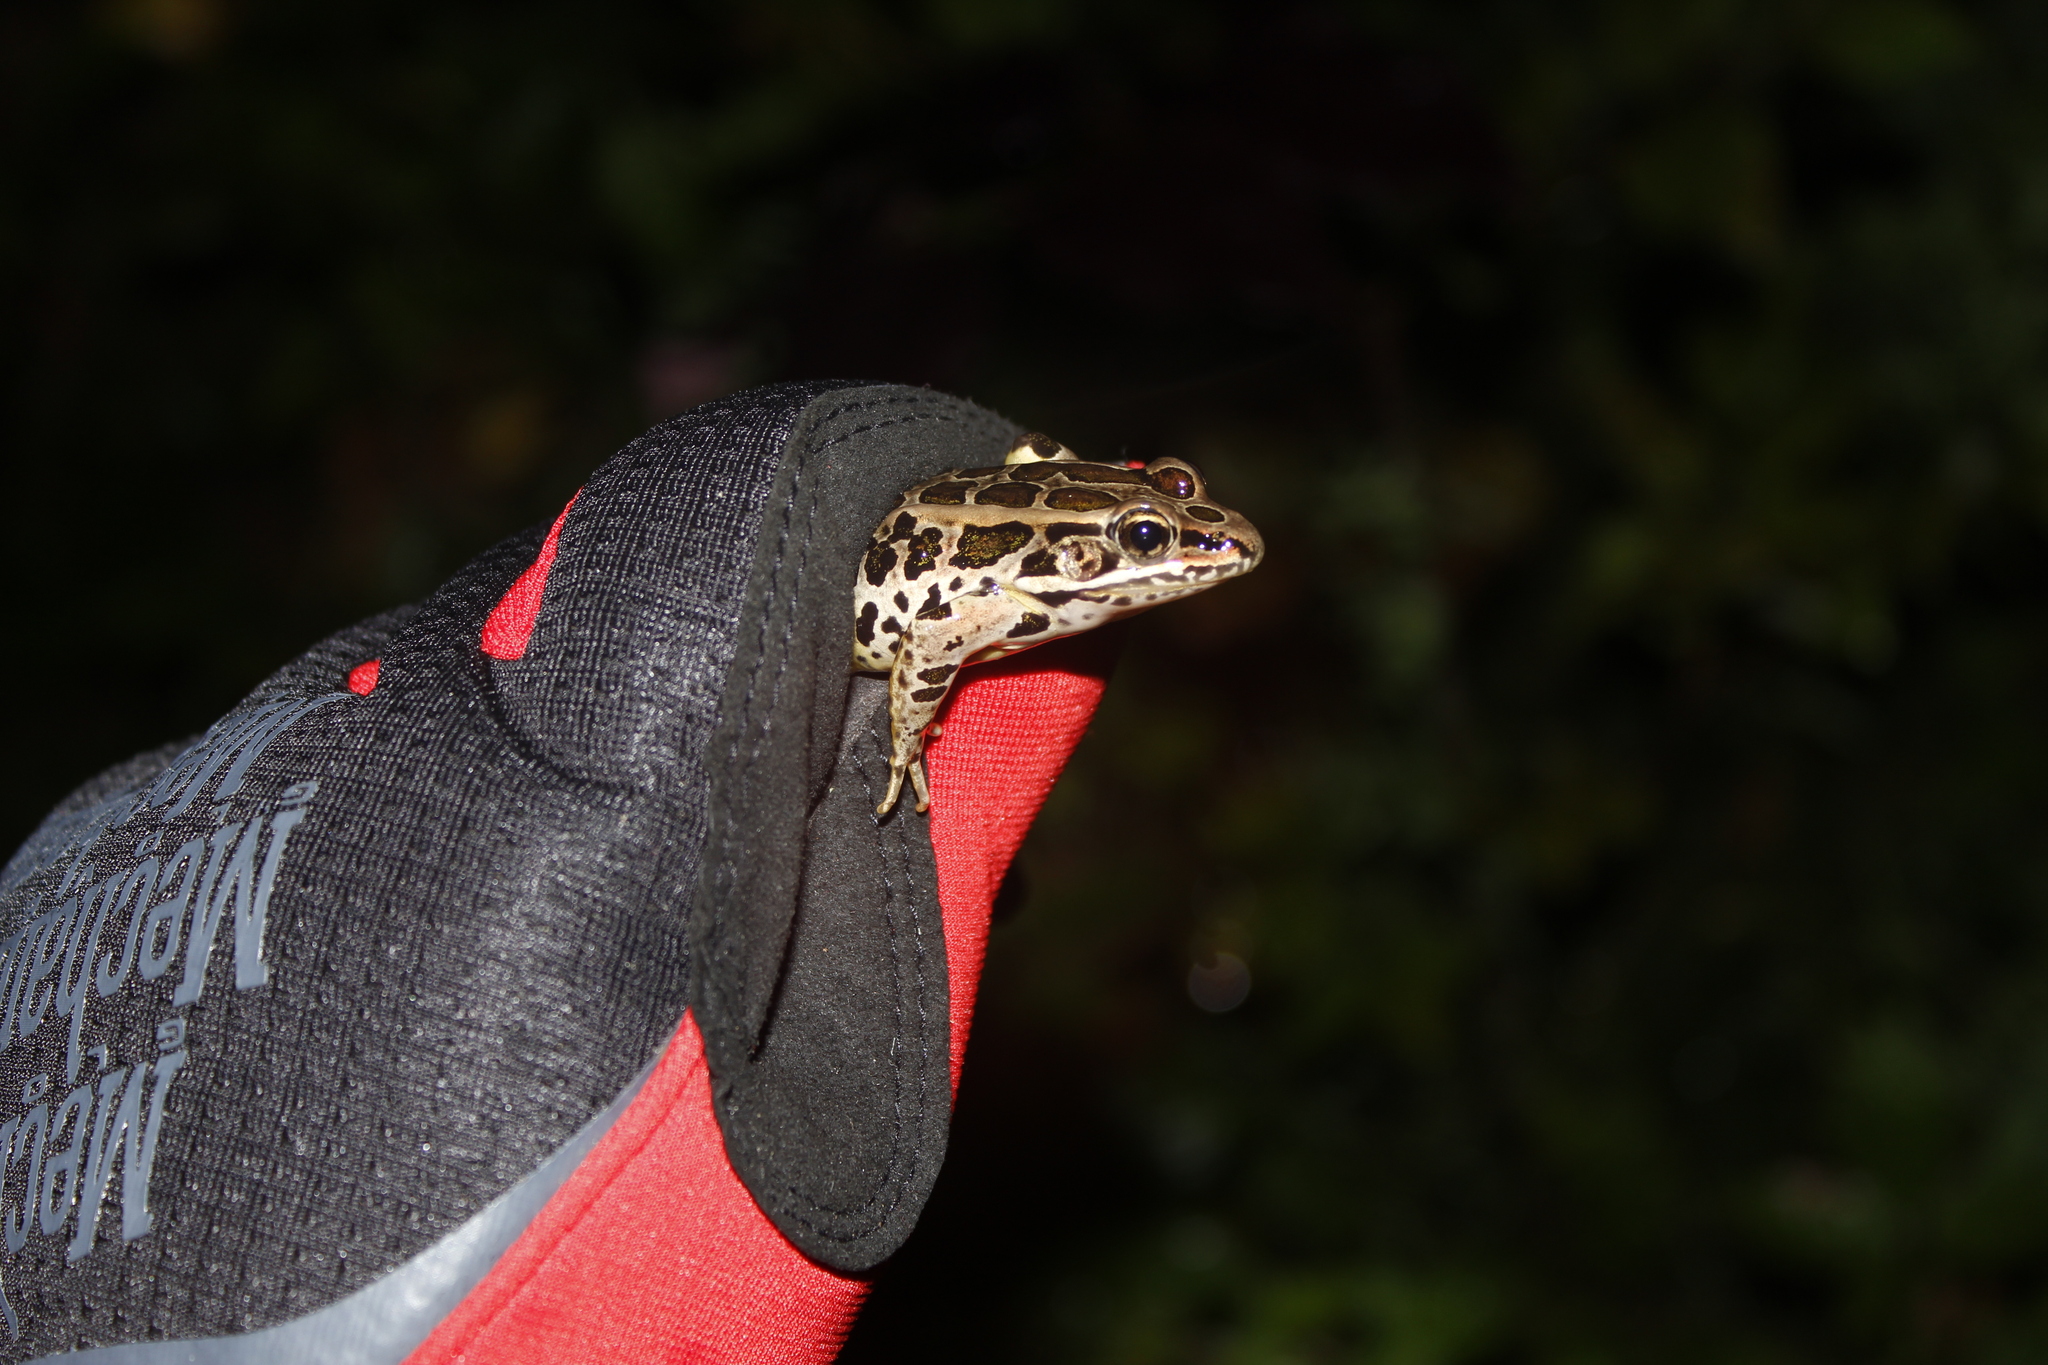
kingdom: Animalia
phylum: Chordata
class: Amphibia
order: Anura
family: Ranidae
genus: Lithobates
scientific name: Lithobates palustris
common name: Pickerel frog
